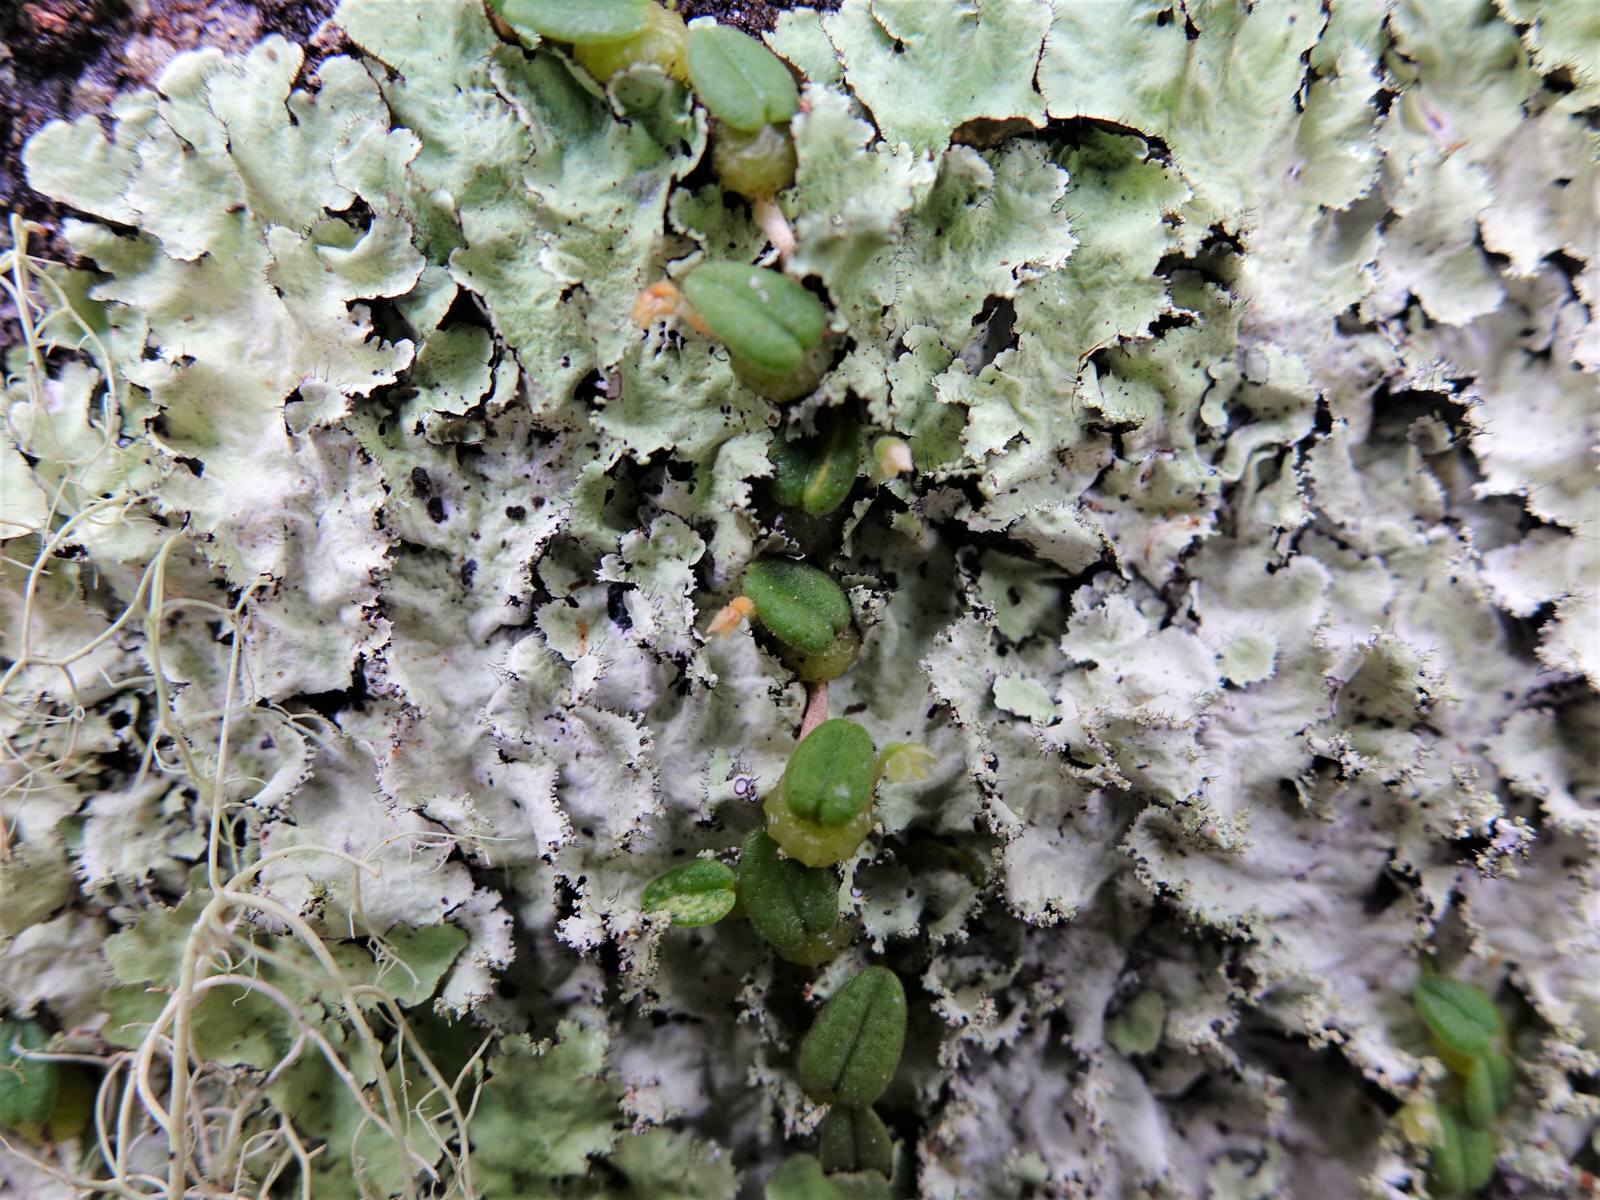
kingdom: Plantae
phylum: Tracheophyta
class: Liliopsida
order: Asparagales
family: Orchidaceae
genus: Bulbophyllum
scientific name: Bulbophyllum pygmaeum
